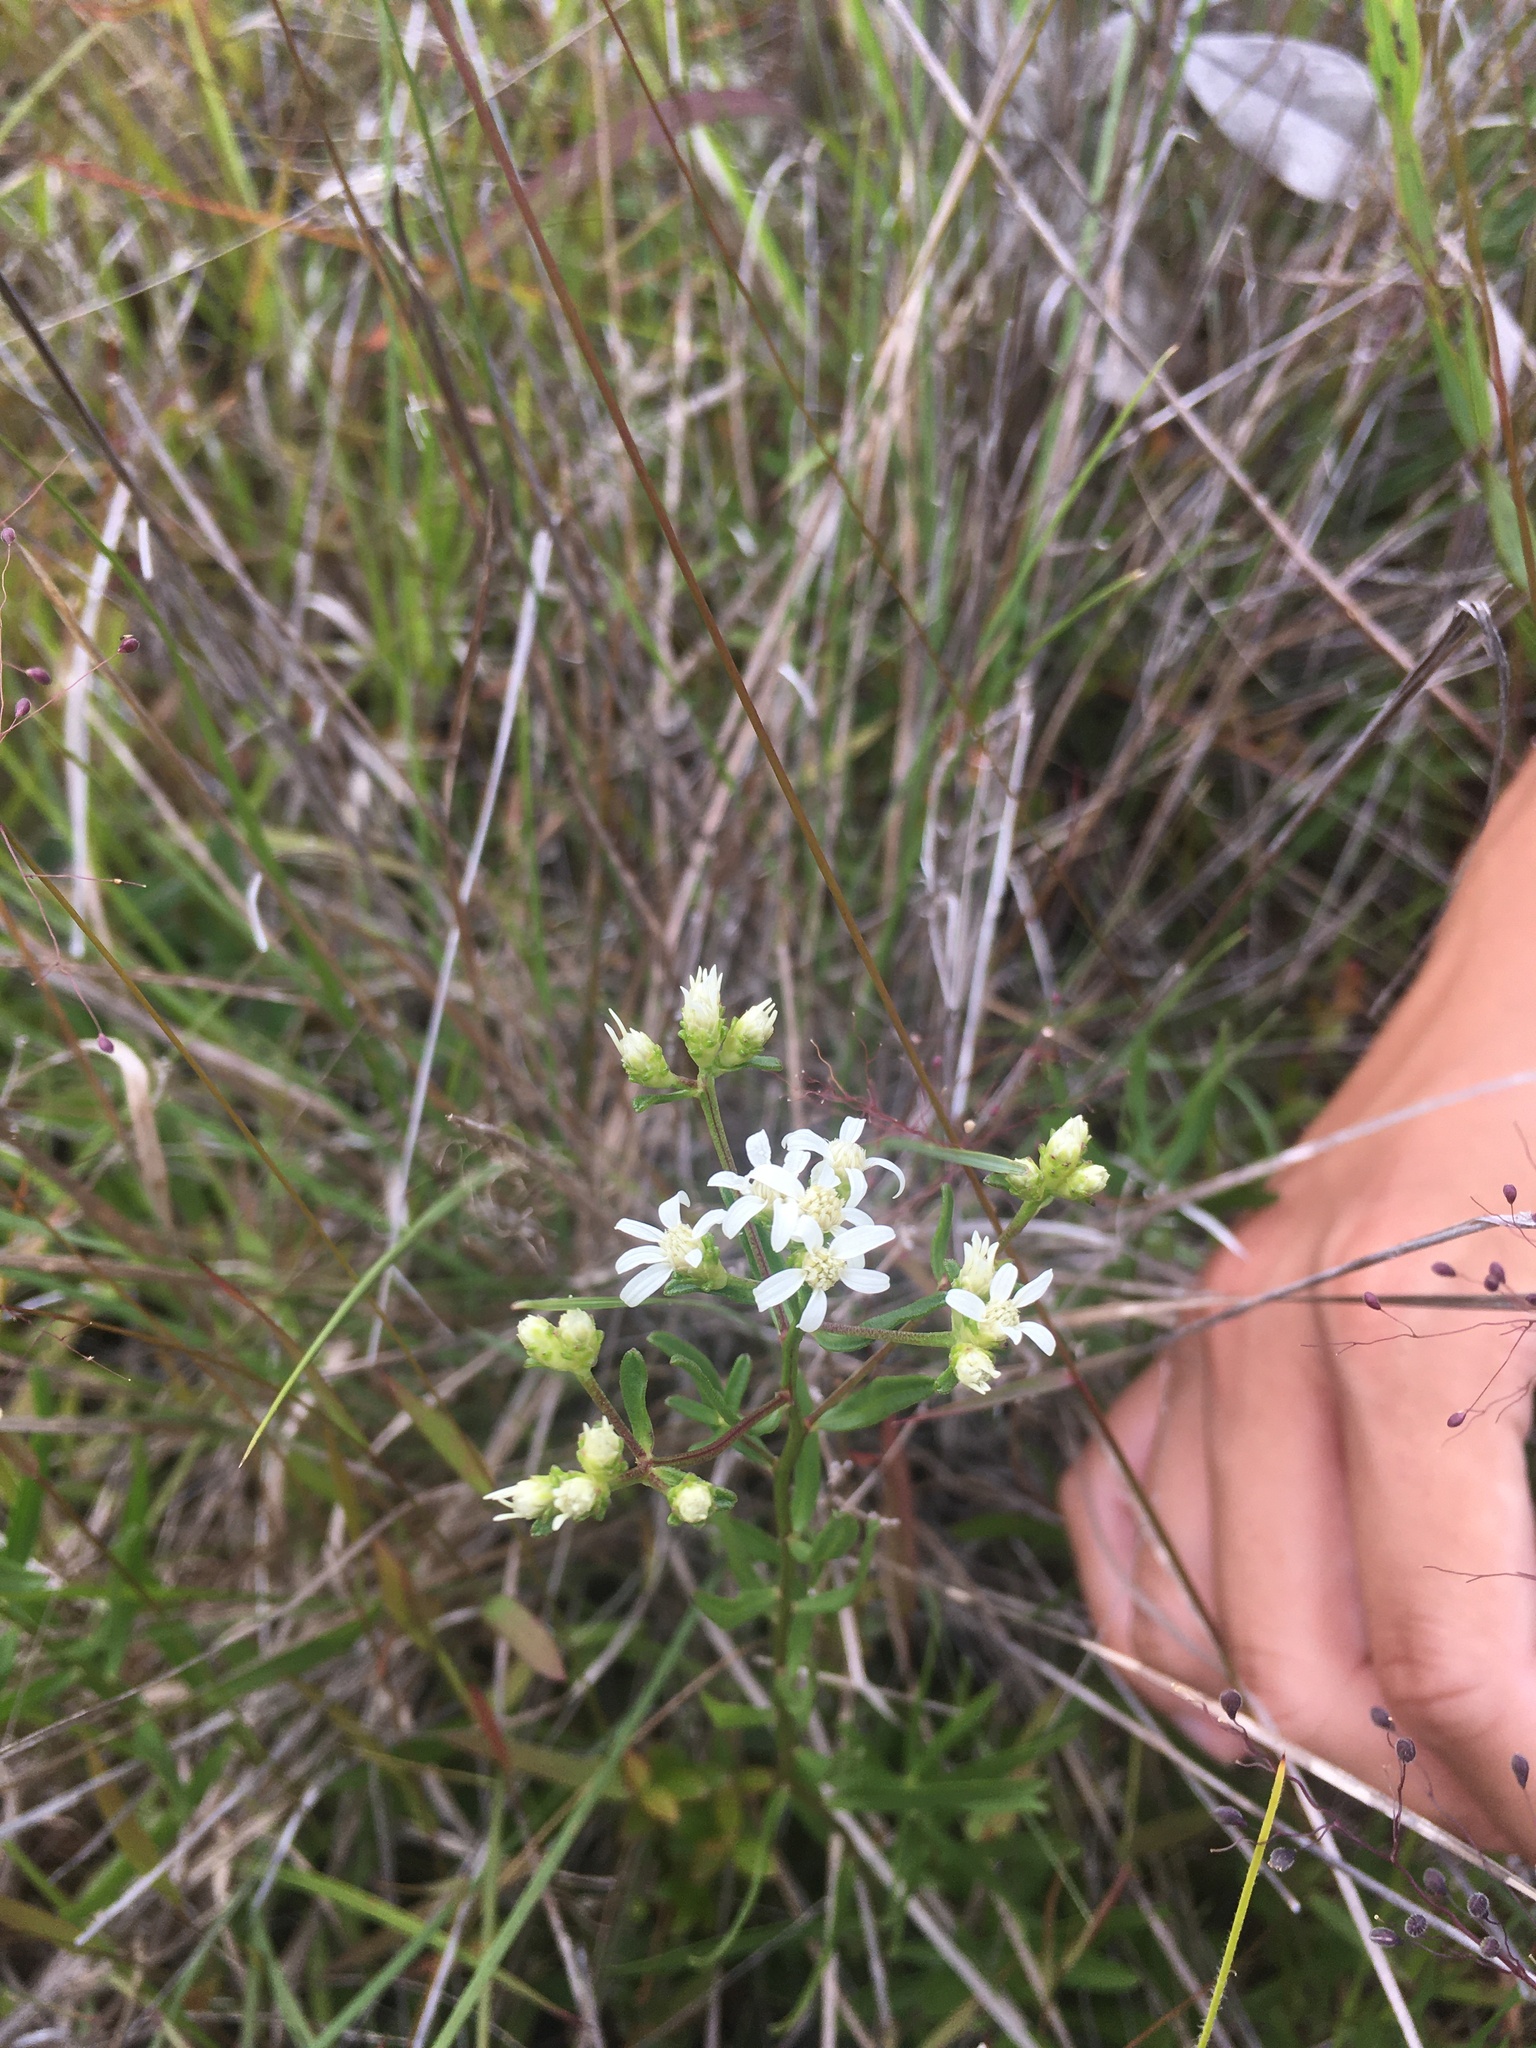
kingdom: Plantae
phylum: Tracheophyta
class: Magnoliopsida
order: Asterales
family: Asteraceae
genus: Sericocarpus
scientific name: Sericocarpus linifolius
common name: Narrow-leaf aster
